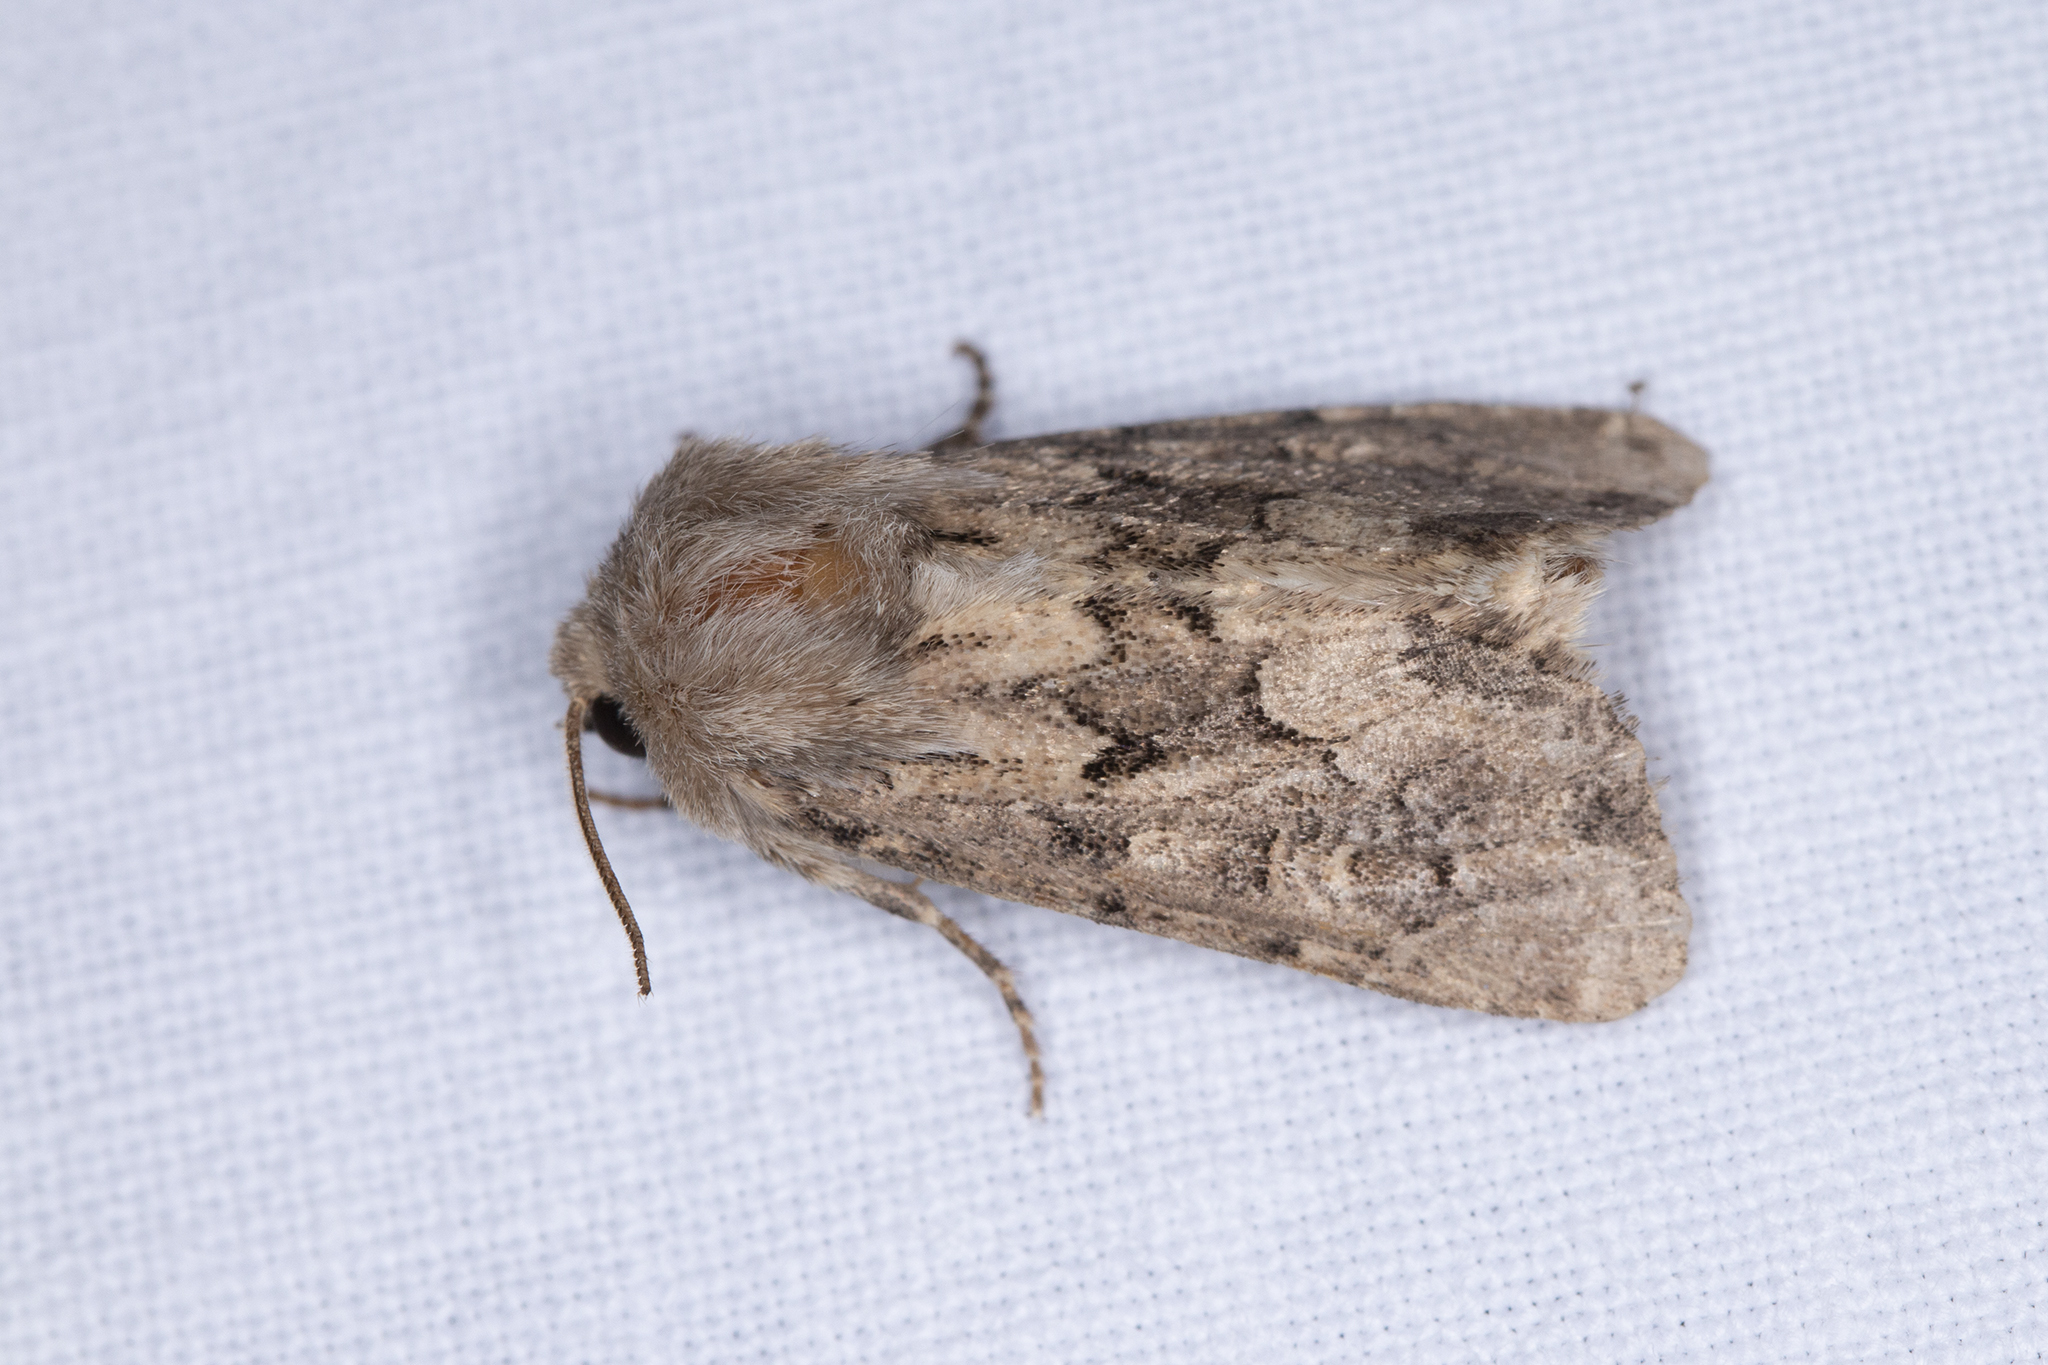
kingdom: Animalia
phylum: Arthropoda
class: Insecta
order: Lepidoptera
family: Noctuidae
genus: Luperina
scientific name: Luperina testacea
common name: Flounced rustic
